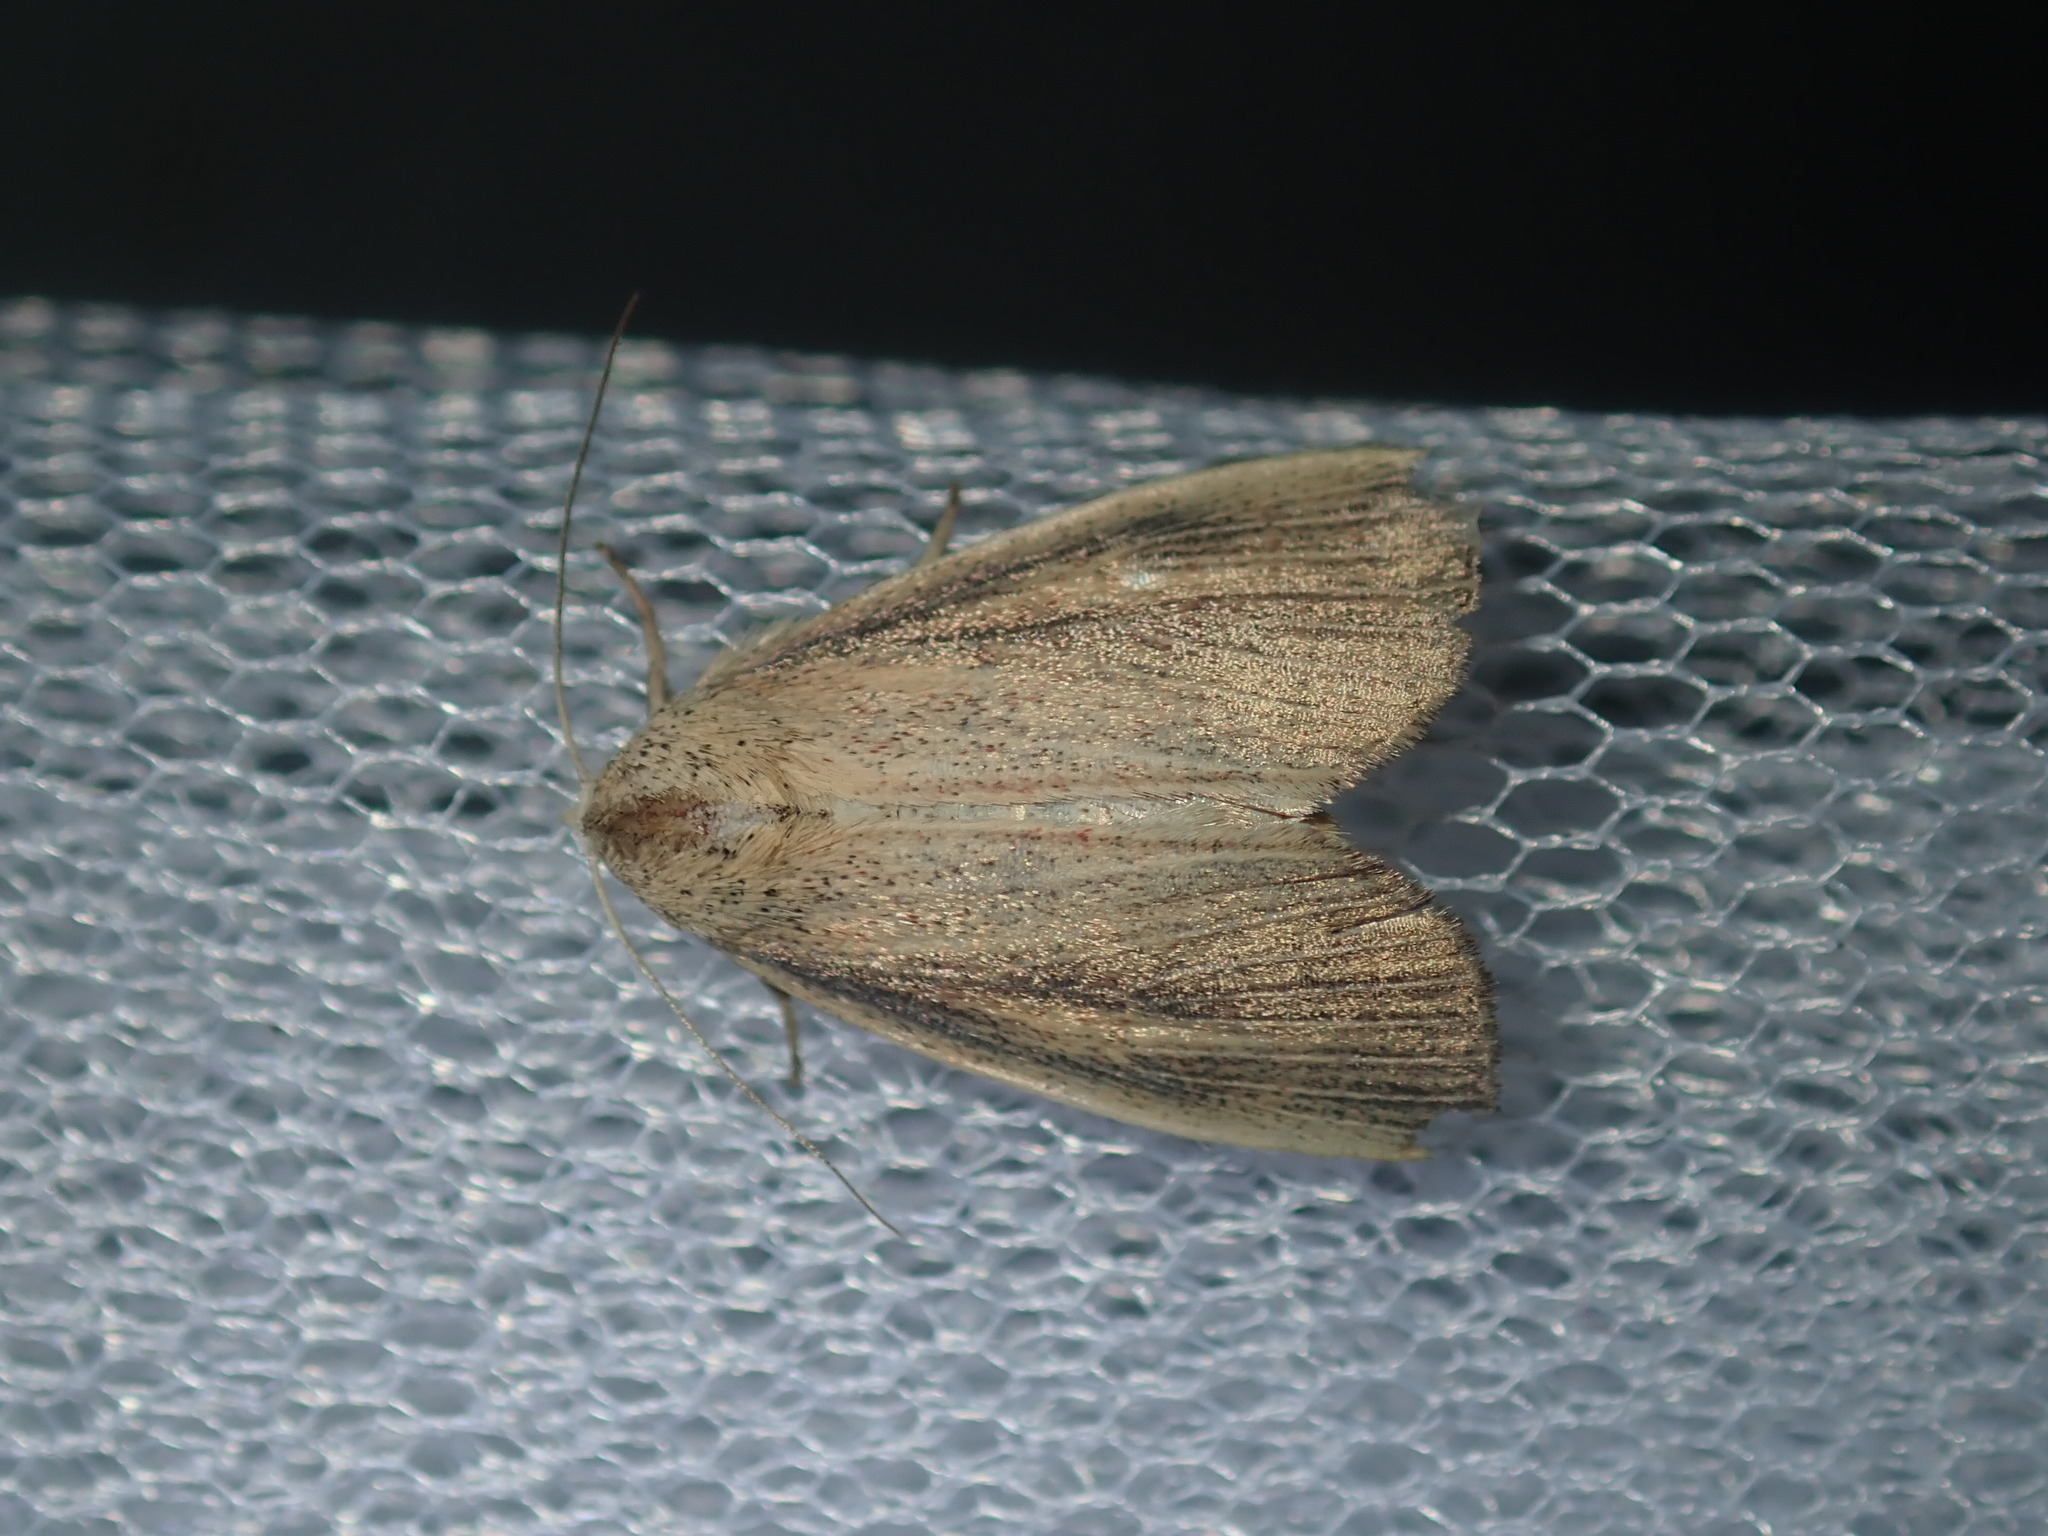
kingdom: Animalia
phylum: Arthropoda
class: Insecta
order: Lepidoptera
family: Noctuidae
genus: Lophocalama
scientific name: Lophocalama neuritis
